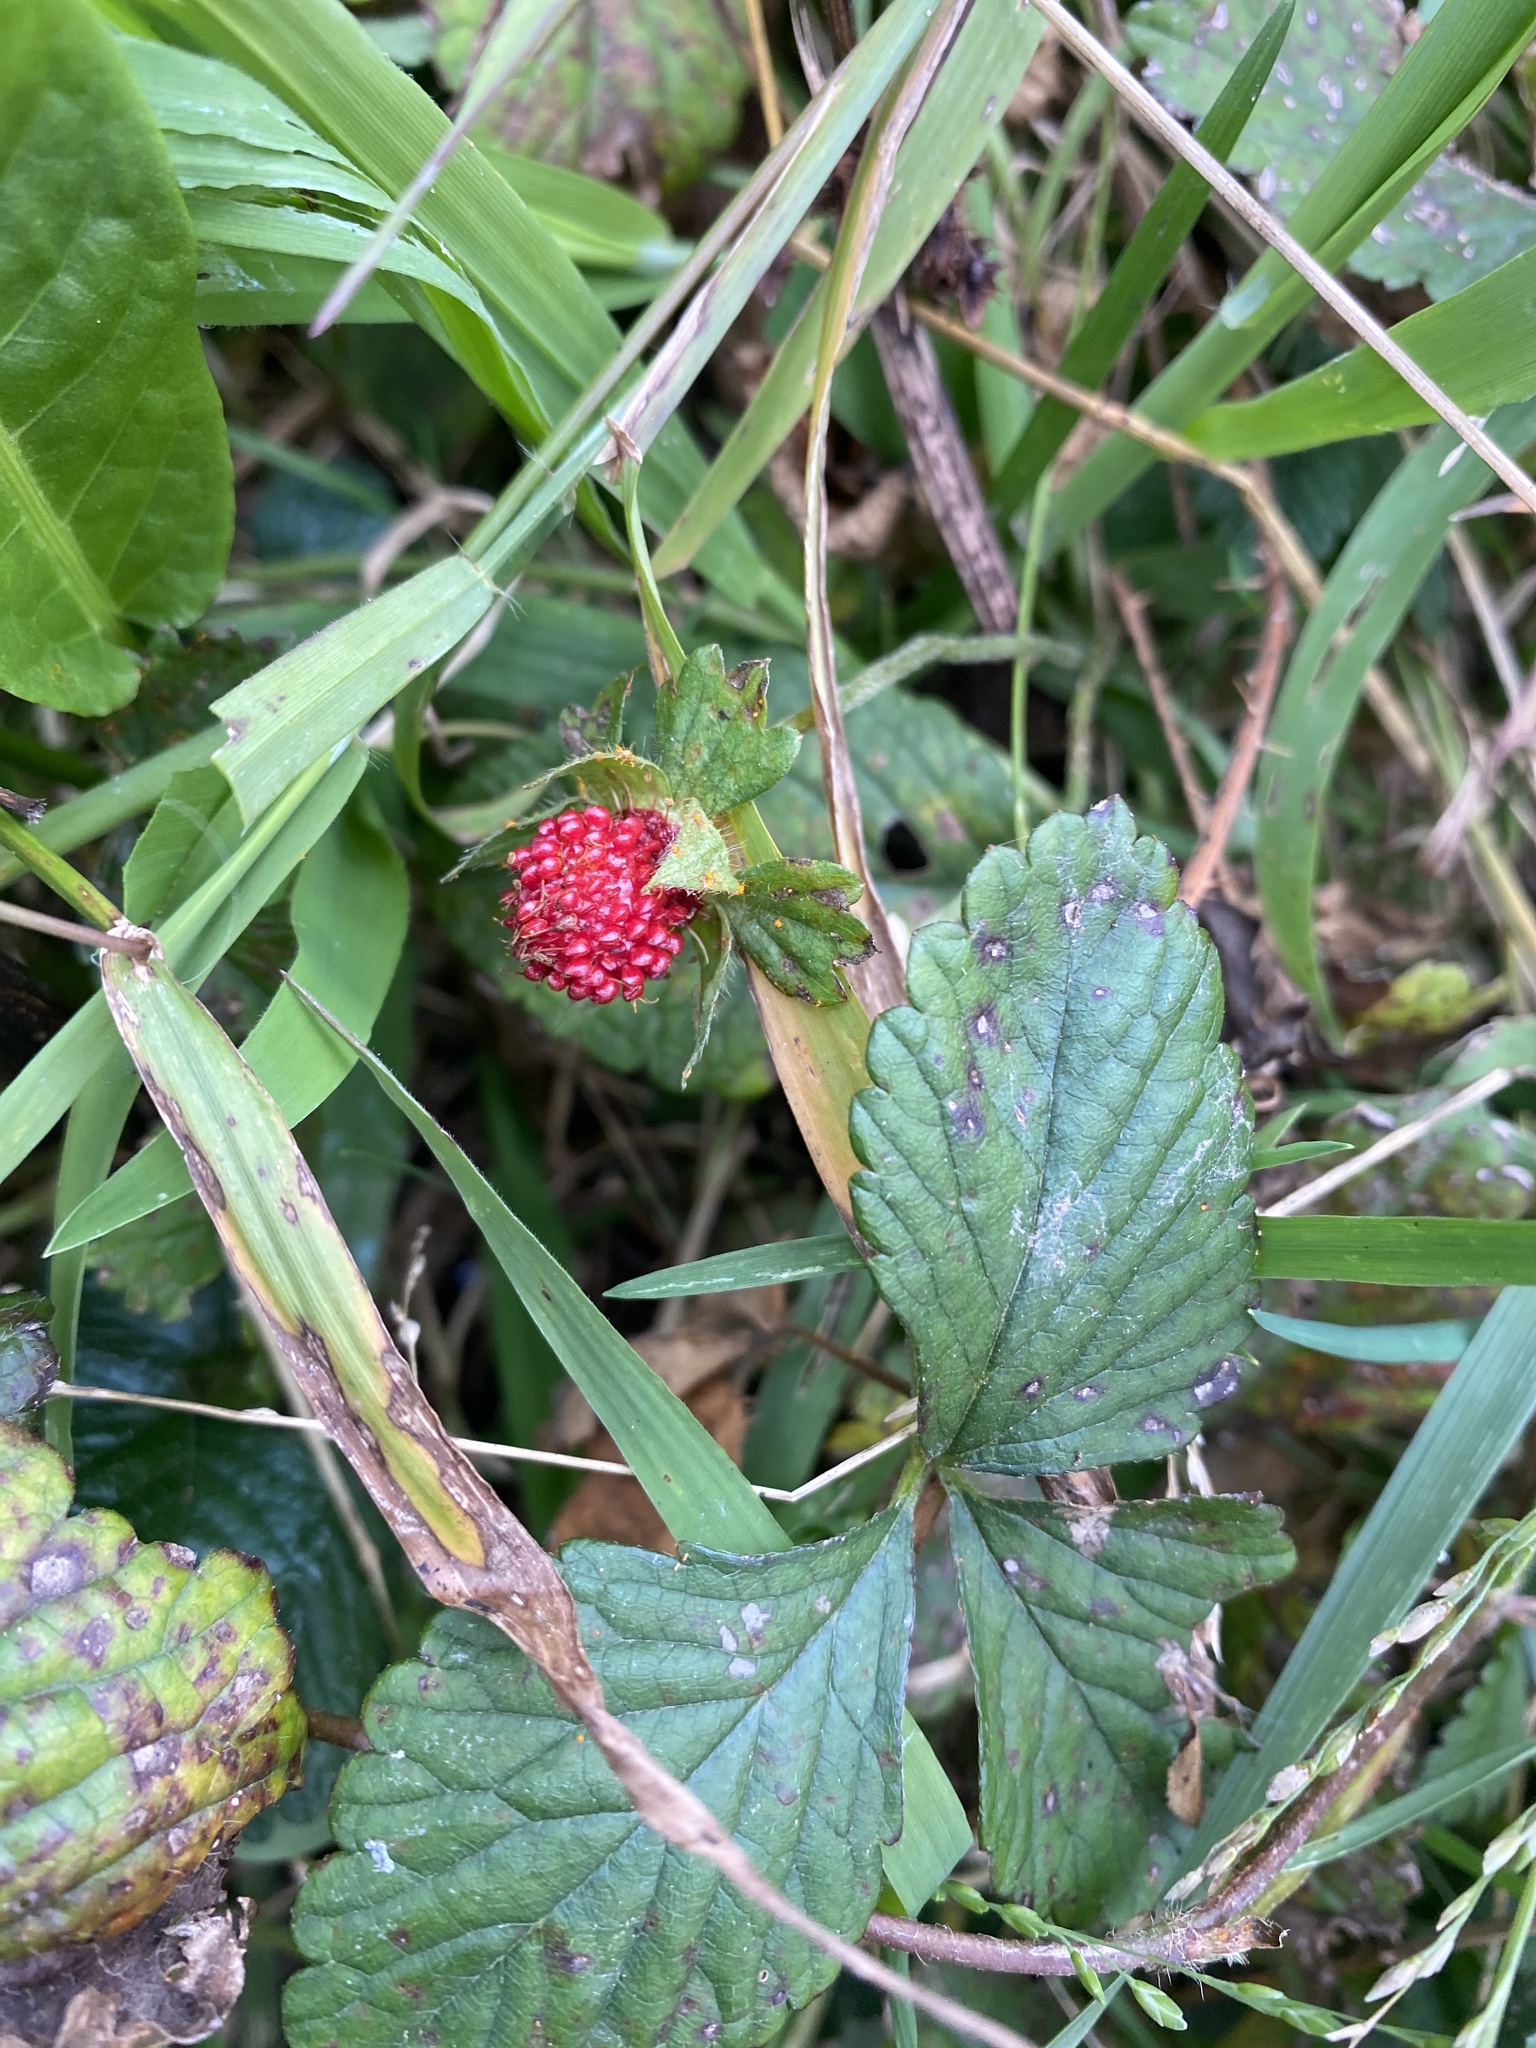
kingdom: Plantae
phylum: Tracheophyta
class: Magnoliopsida
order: Rosales
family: Rosaceae
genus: Potentilla
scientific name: Potentilla indica
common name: Yellow-flowered strawberry
